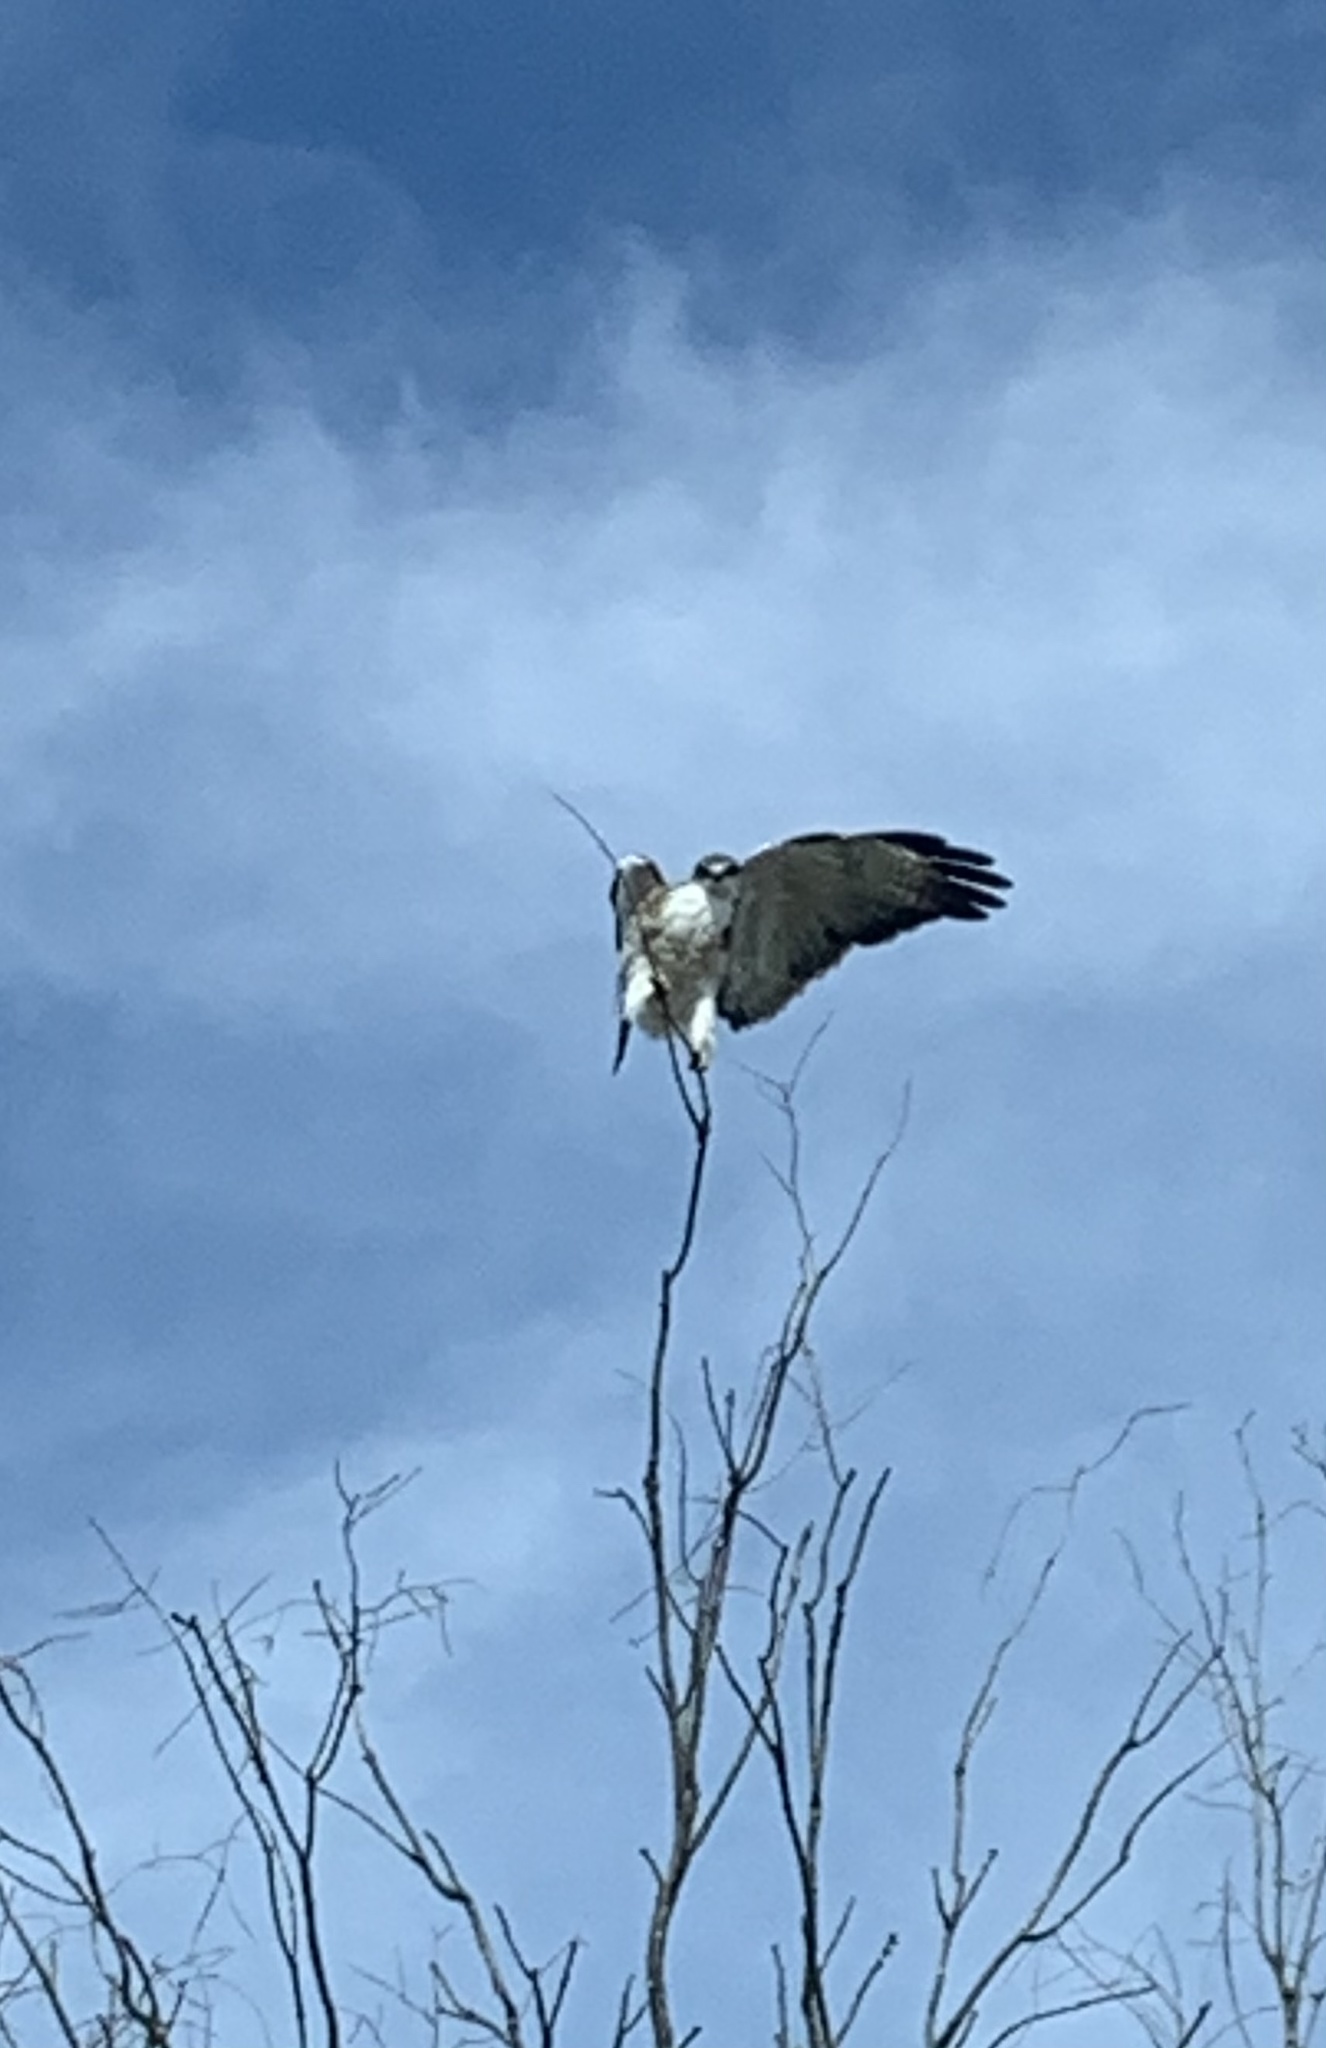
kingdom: Animalia
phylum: Chordata
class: Aves
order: Accipitriformes
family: Accipitridae
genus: Buteo
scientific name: Buteo polyosoma
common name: Variable hawk
